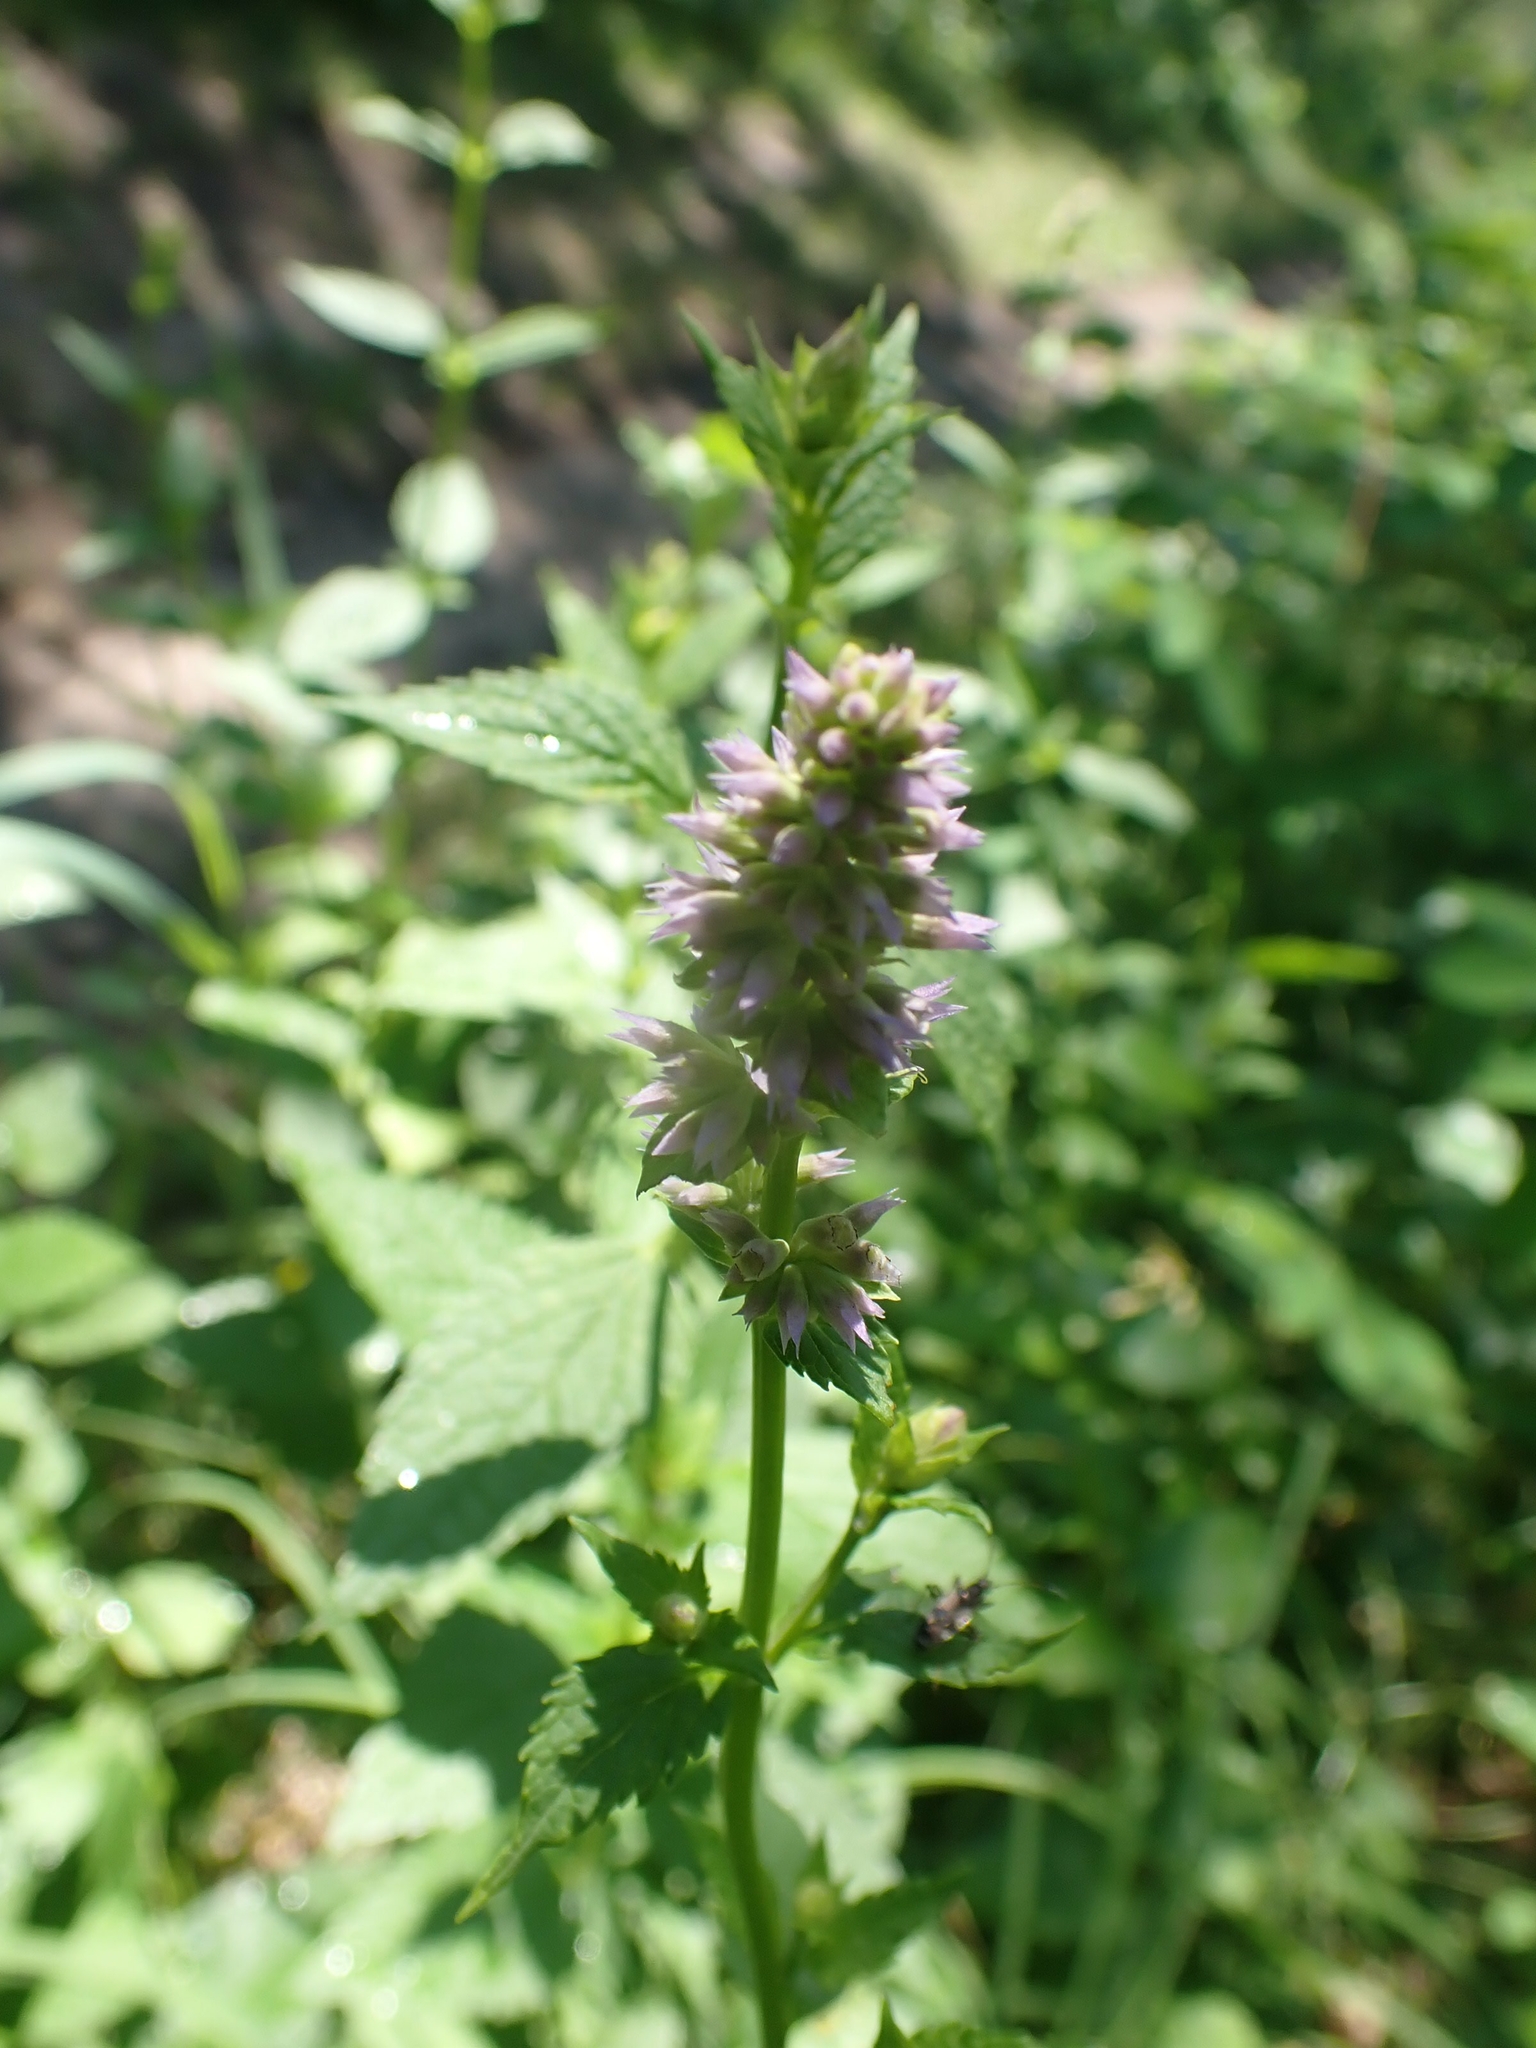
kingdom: Plantae
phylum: Tracheophyta
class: Magnoliopsida
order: Lamiales
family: Lamiaceae
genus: Agastache
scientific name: Agastache foeniculum
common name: Anise hyssop
